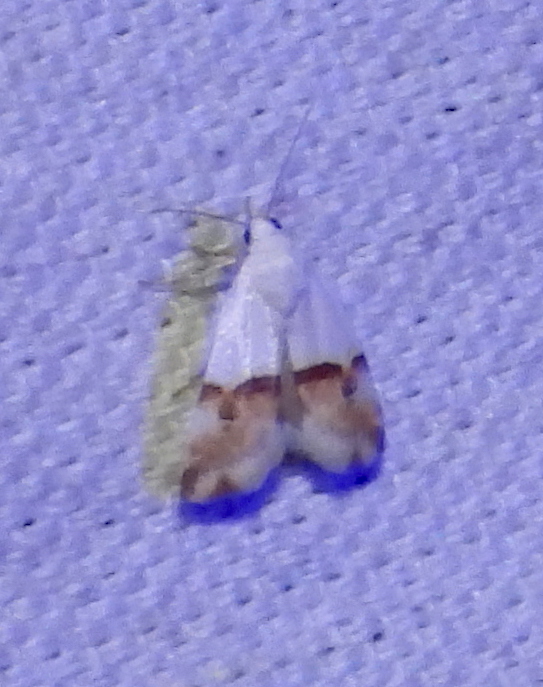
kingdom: Animalia
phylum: Arthropoda
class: Insecta
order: Lepidoptera
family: Noctuidae
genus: Ponometia
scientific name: Ponometia elegantula
